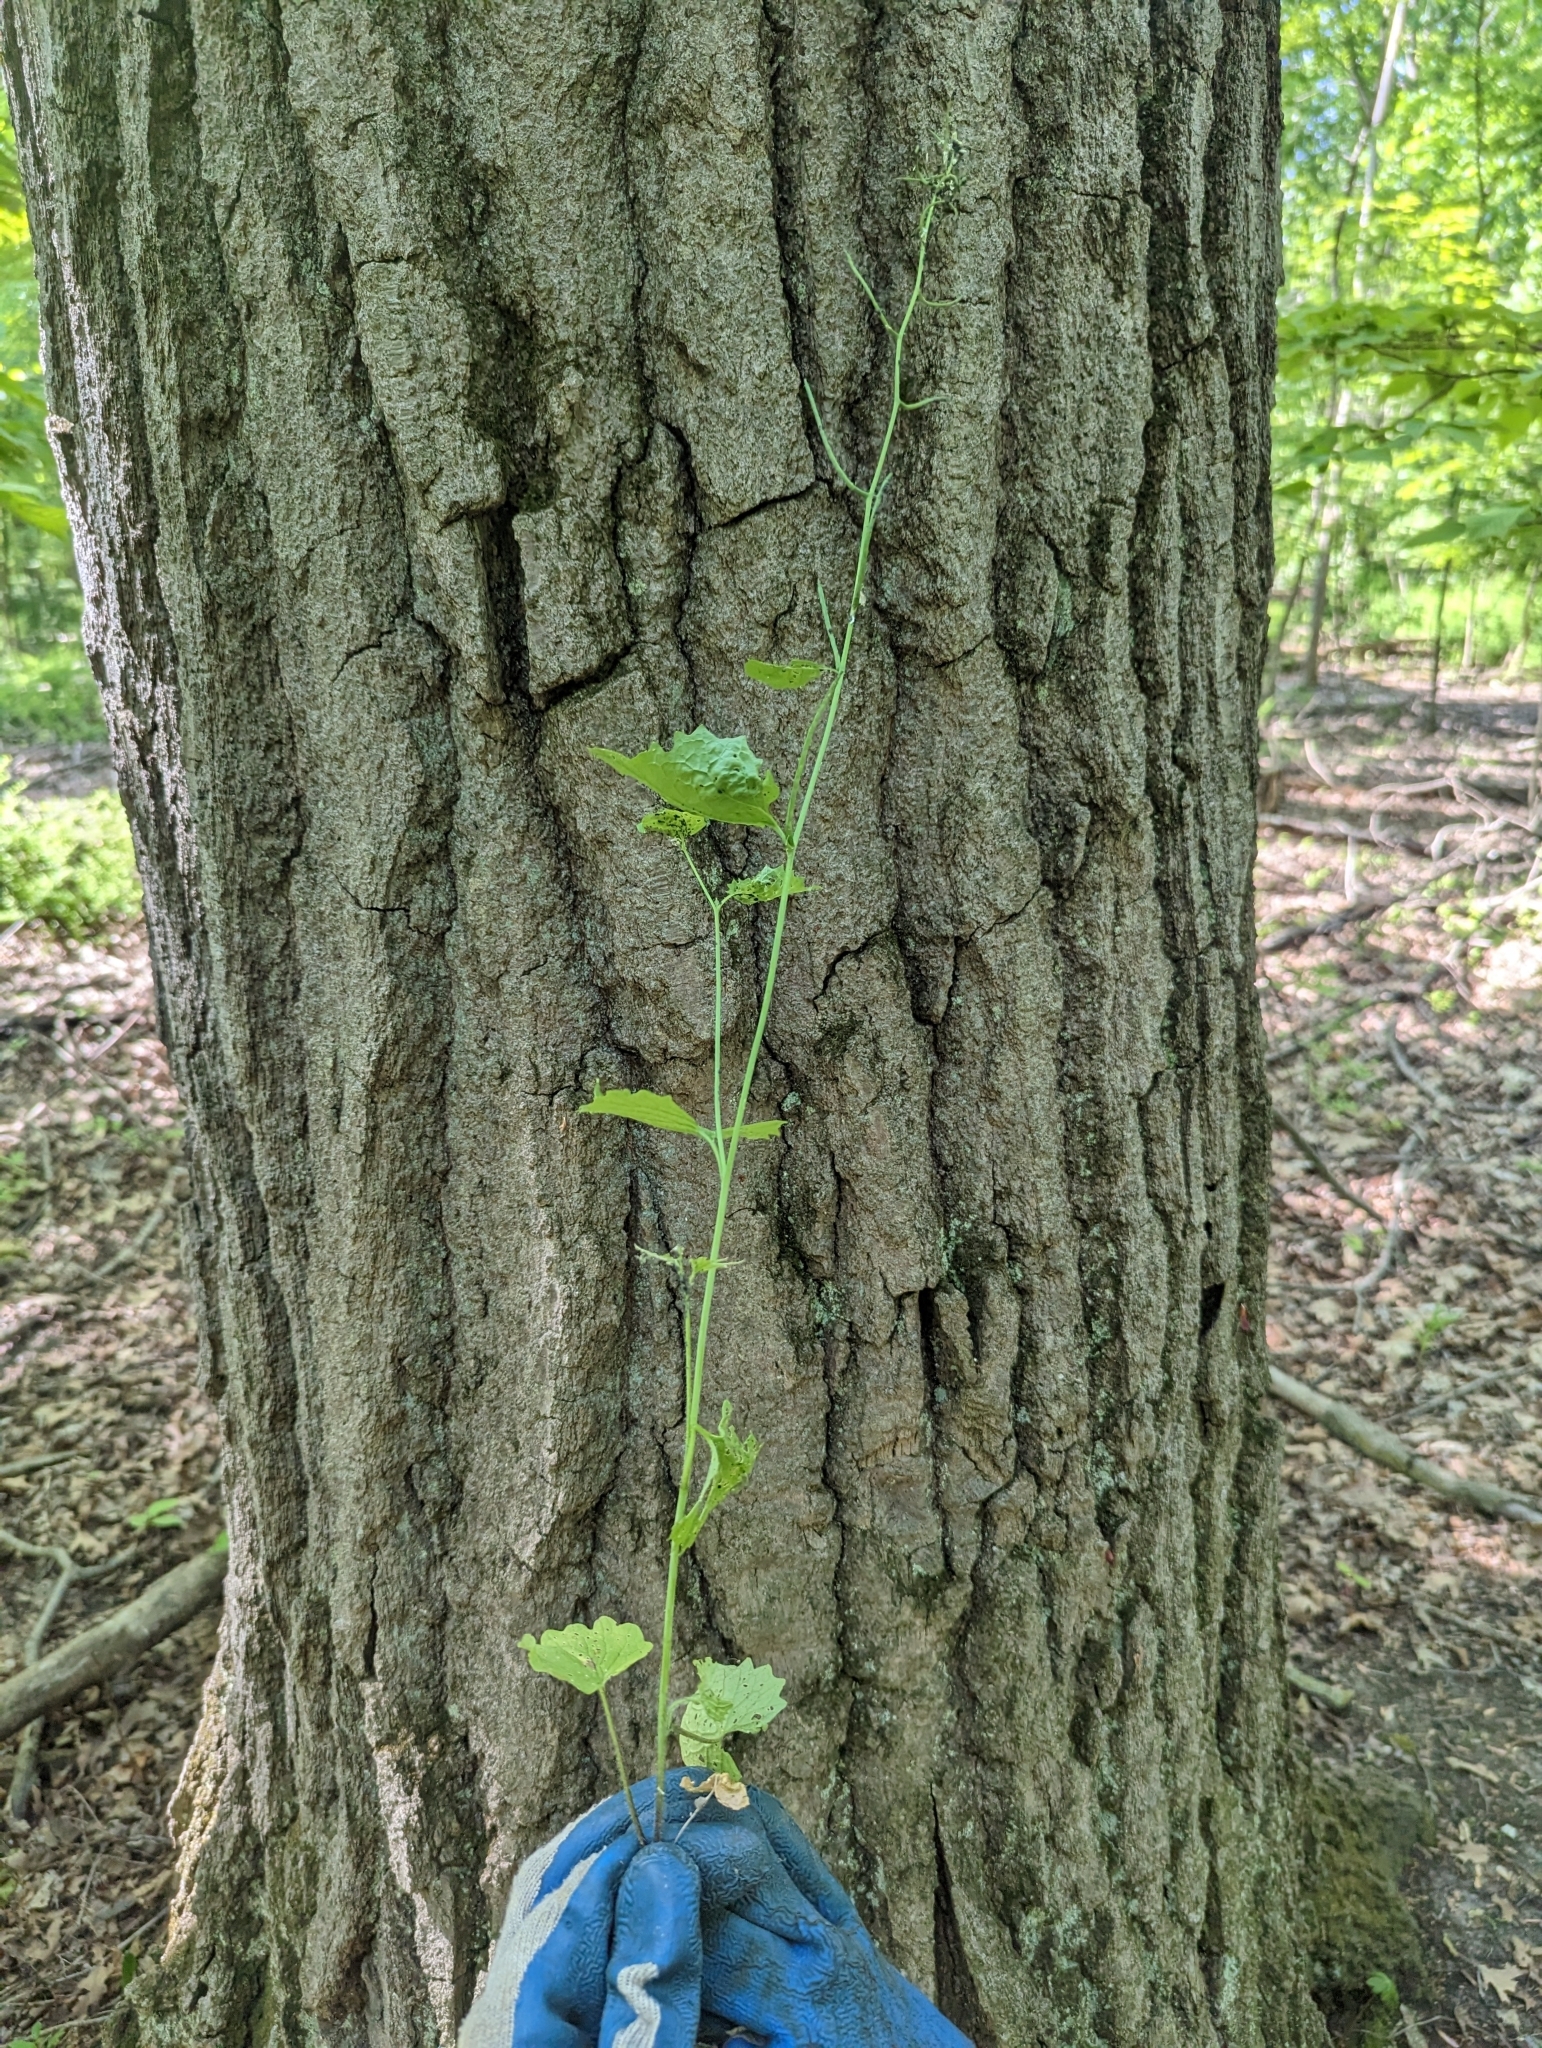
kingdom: Plantae
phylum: Tracheophyta
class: Magnoliopsida
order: Brassicales
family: Brassicaceae
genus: Alliaria
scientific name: Alliaria petiolata
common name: Garlic mustard
